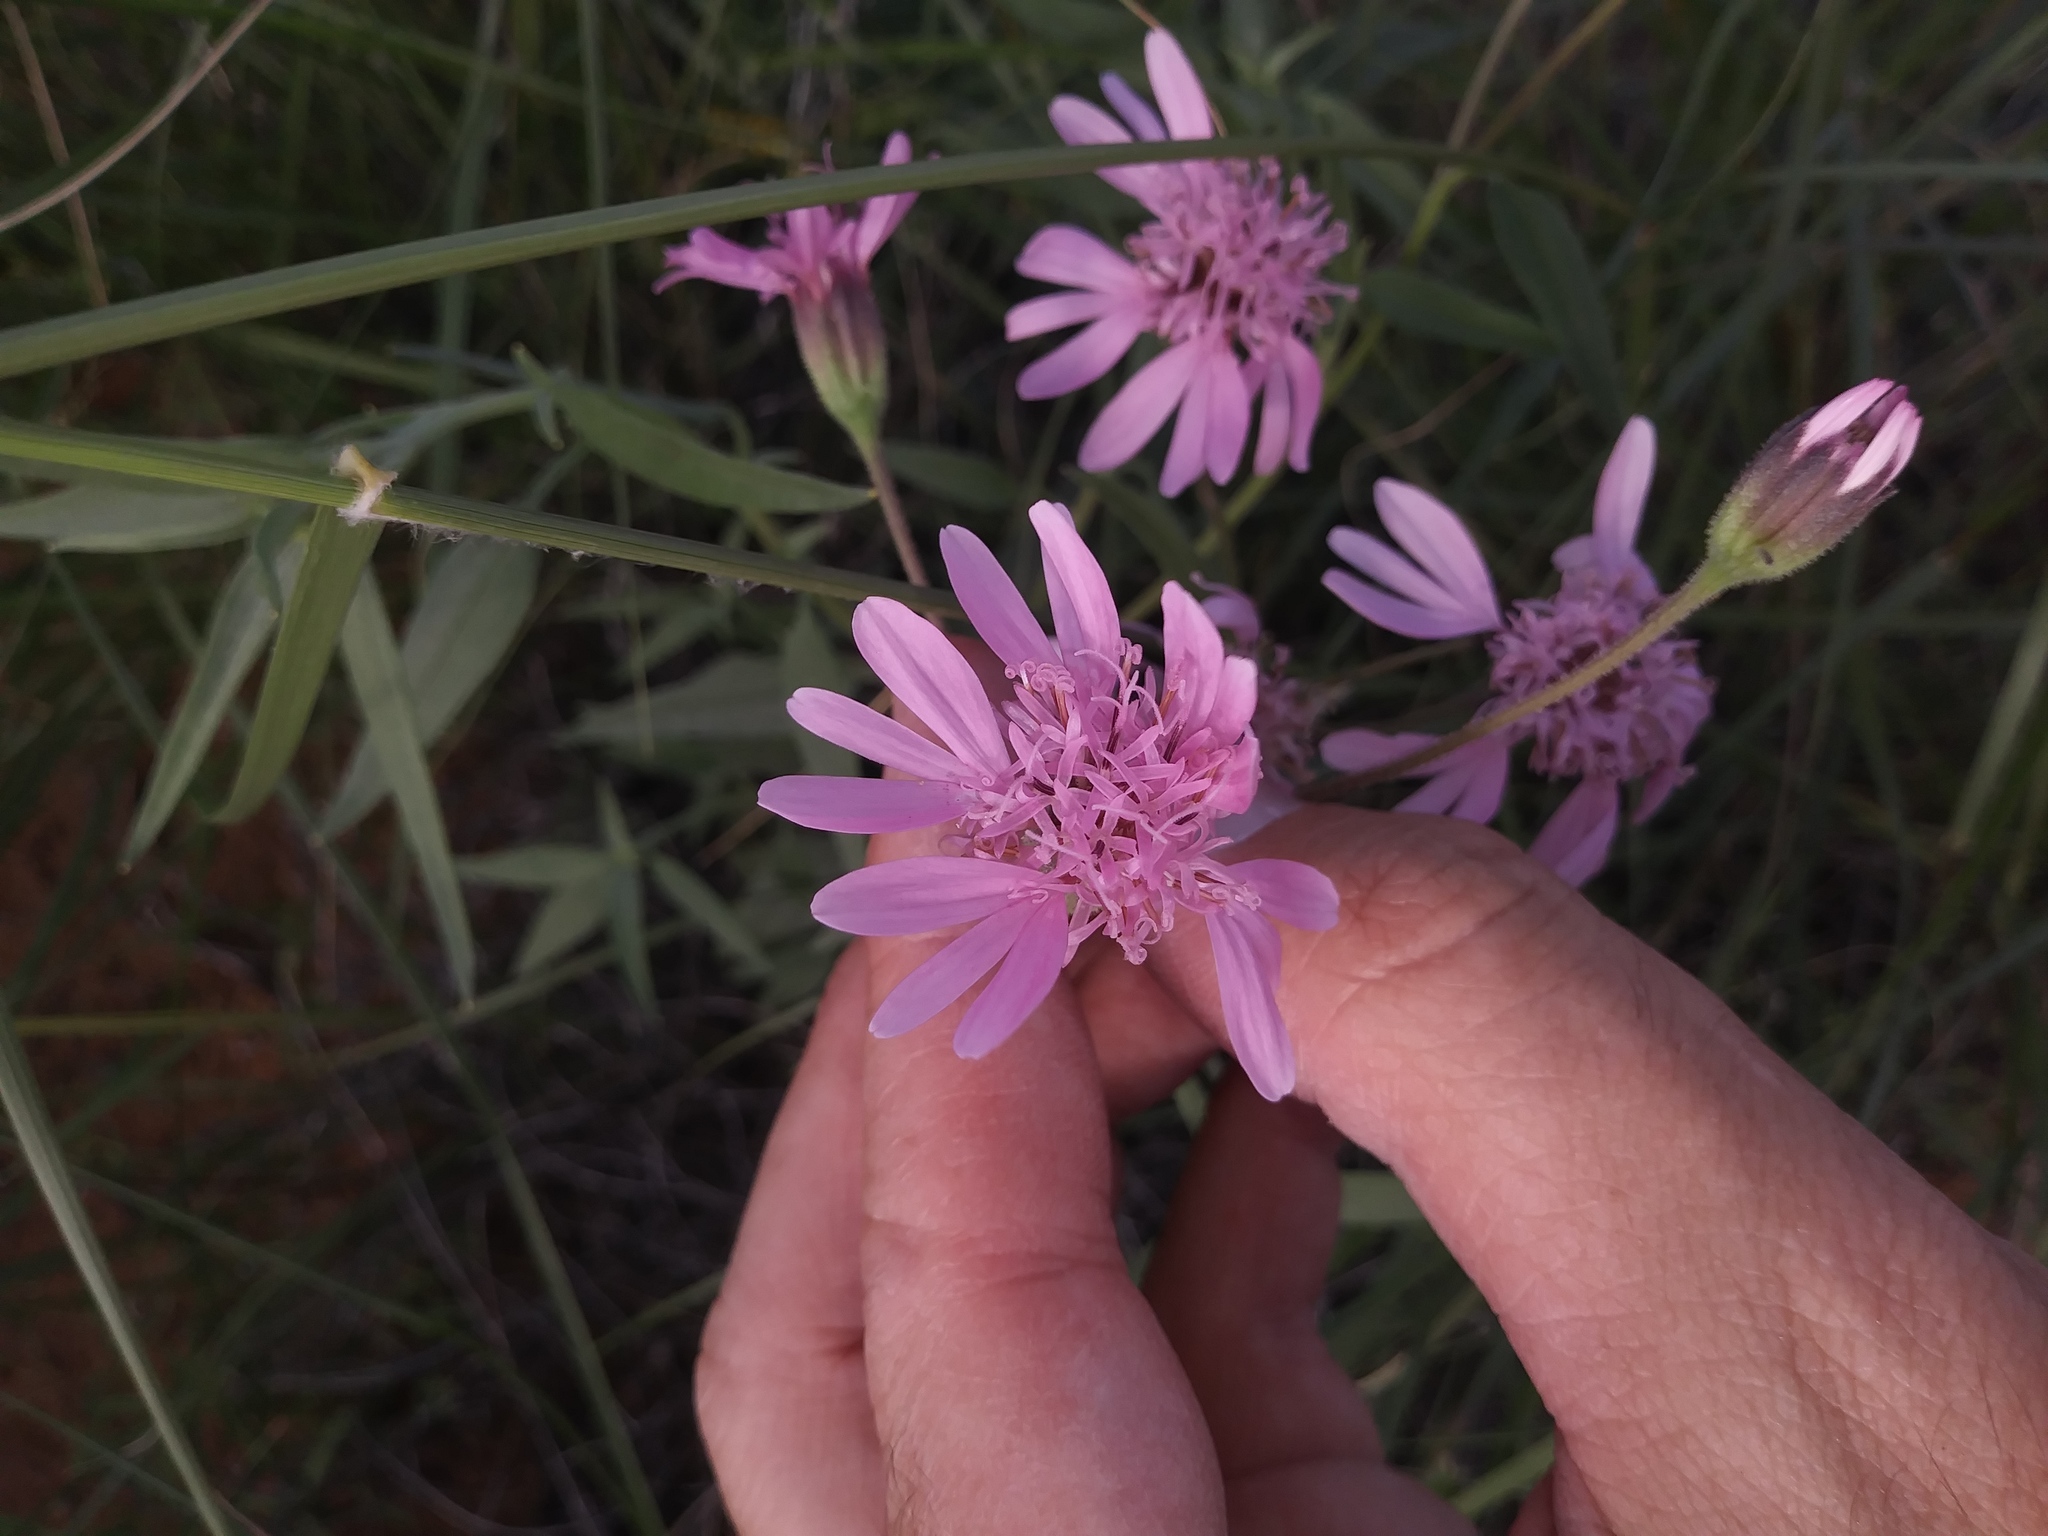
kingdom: Plantae
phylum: Tracheophyta
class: Magnoliopsida
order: Asterales
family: Asteraceae
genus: Palafoxia
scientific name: Palafoxia sphacelata
